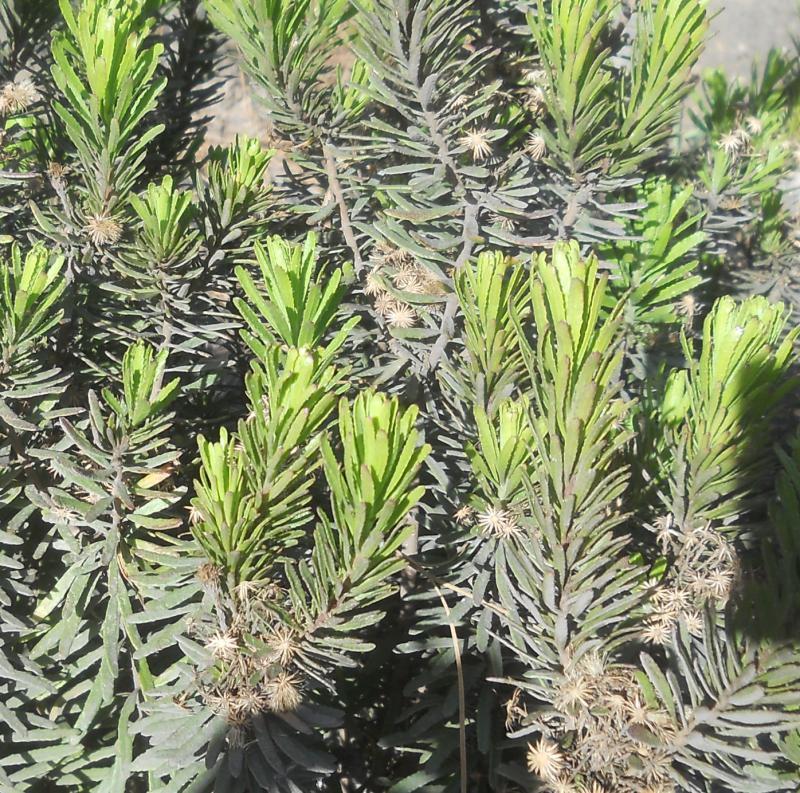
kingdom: Plantae
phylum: Tracheophyta
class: Magnoliopsida
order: Asterales
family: Asteraceae
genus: Allagopappus
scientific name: Allagopappus canariensis
